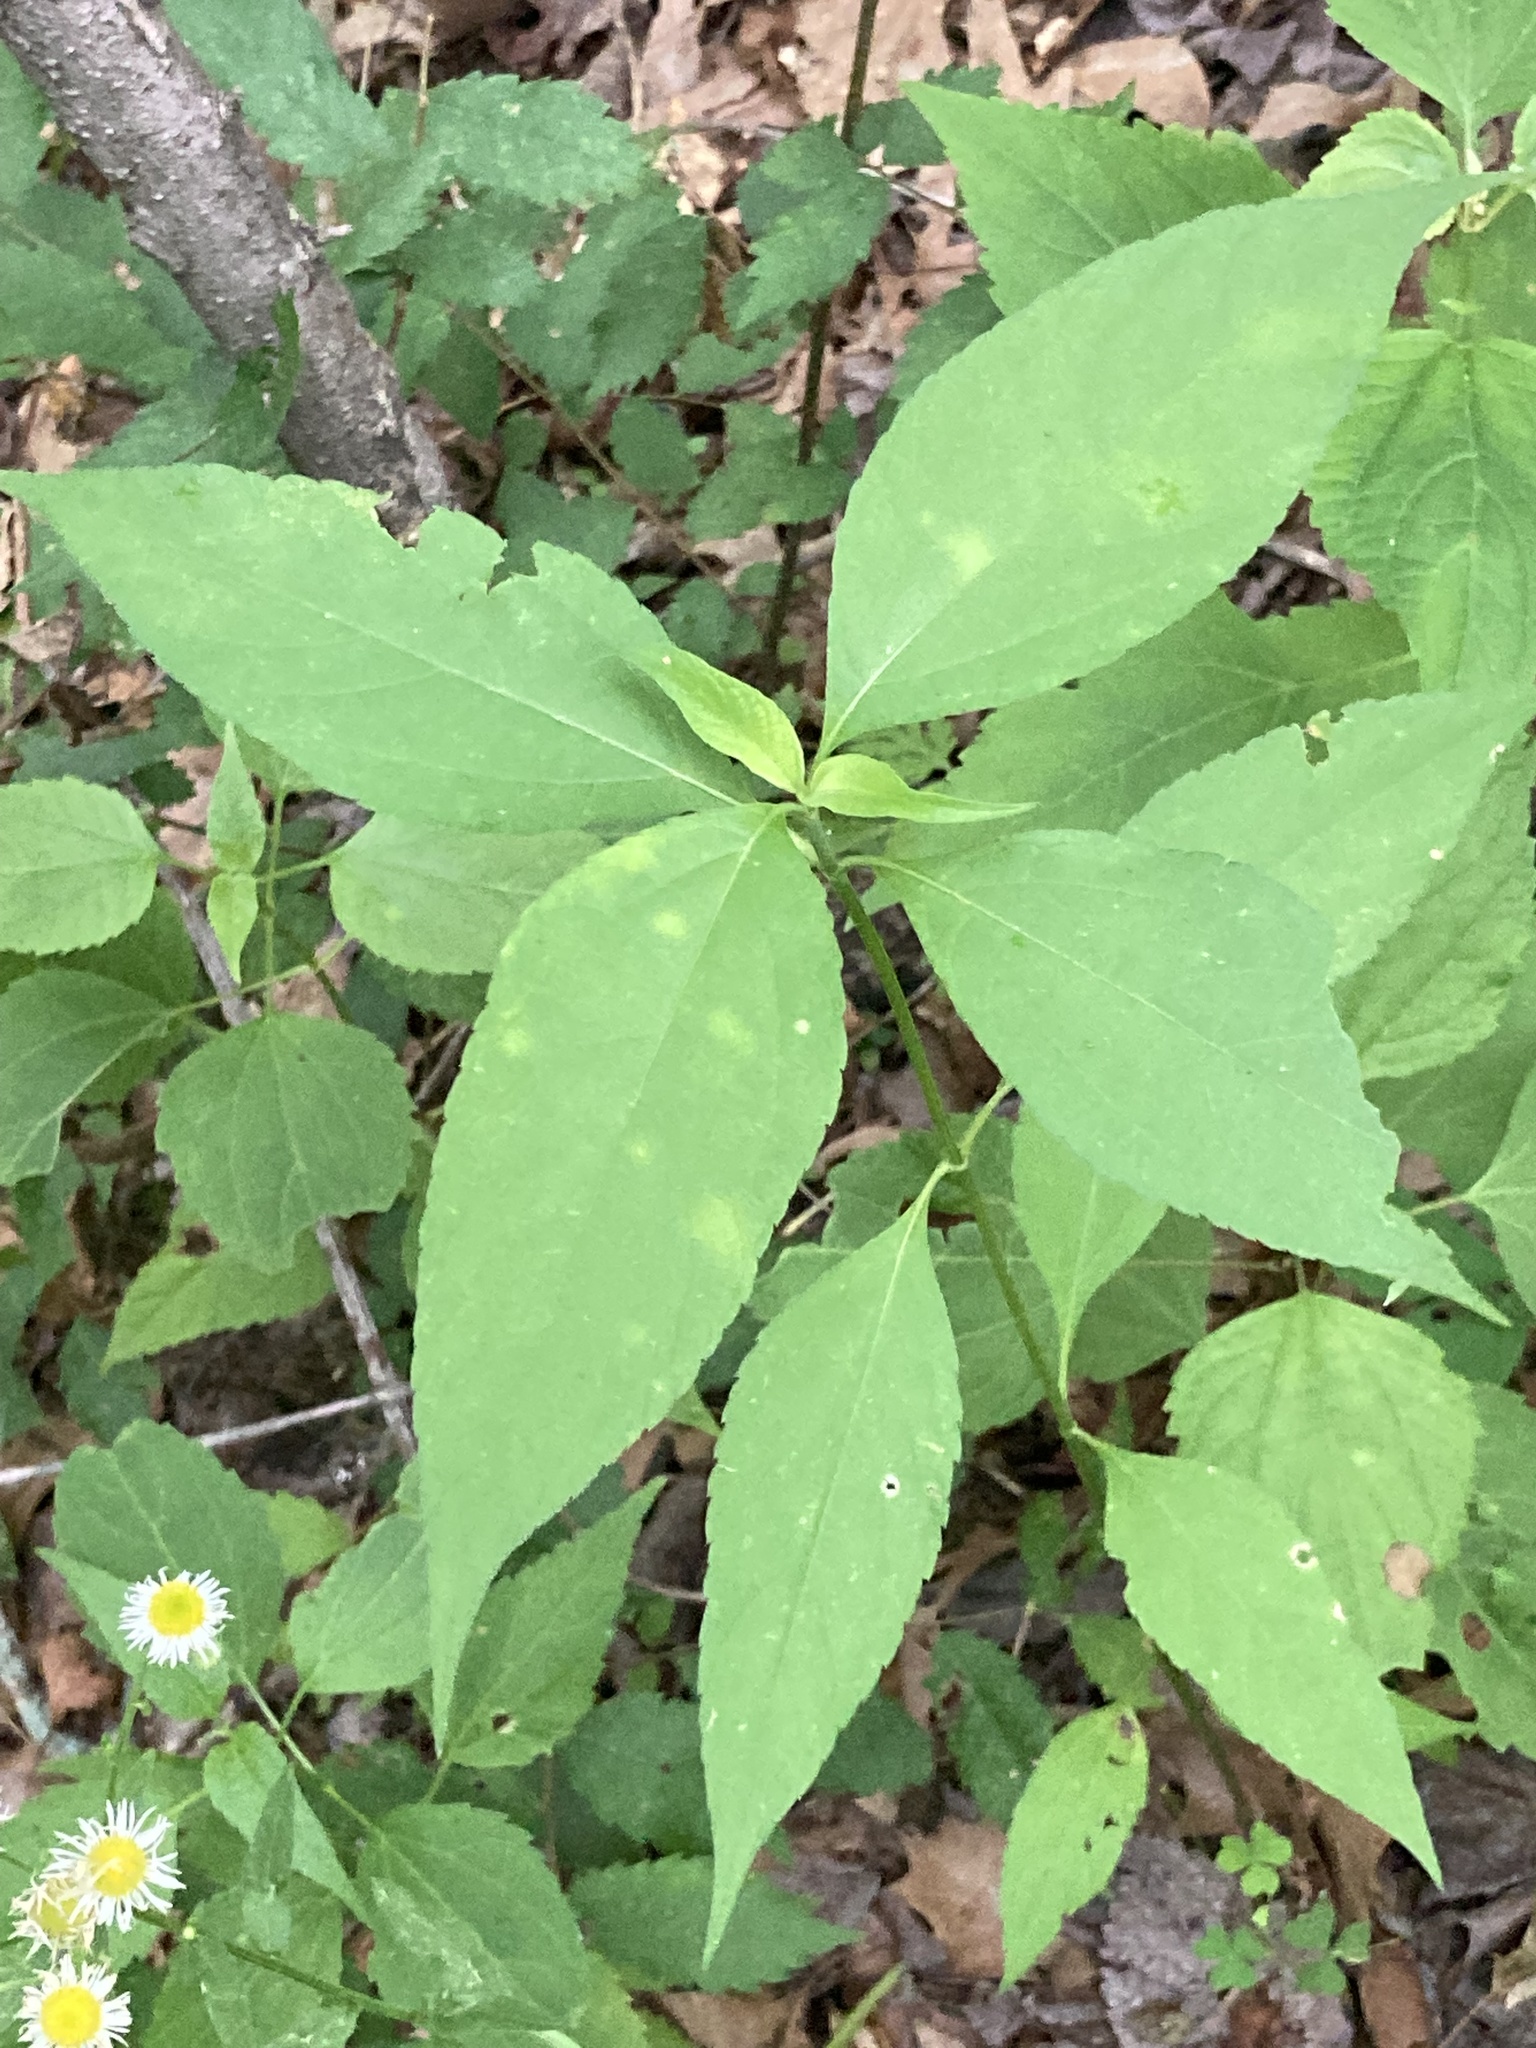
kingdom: Plantae
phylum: Tracheophyta
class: Magnoliopsida
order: Asterales
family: Asteraceae
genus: Ambrosia
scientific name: Ambrosia trifida
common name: Giant ragweed
